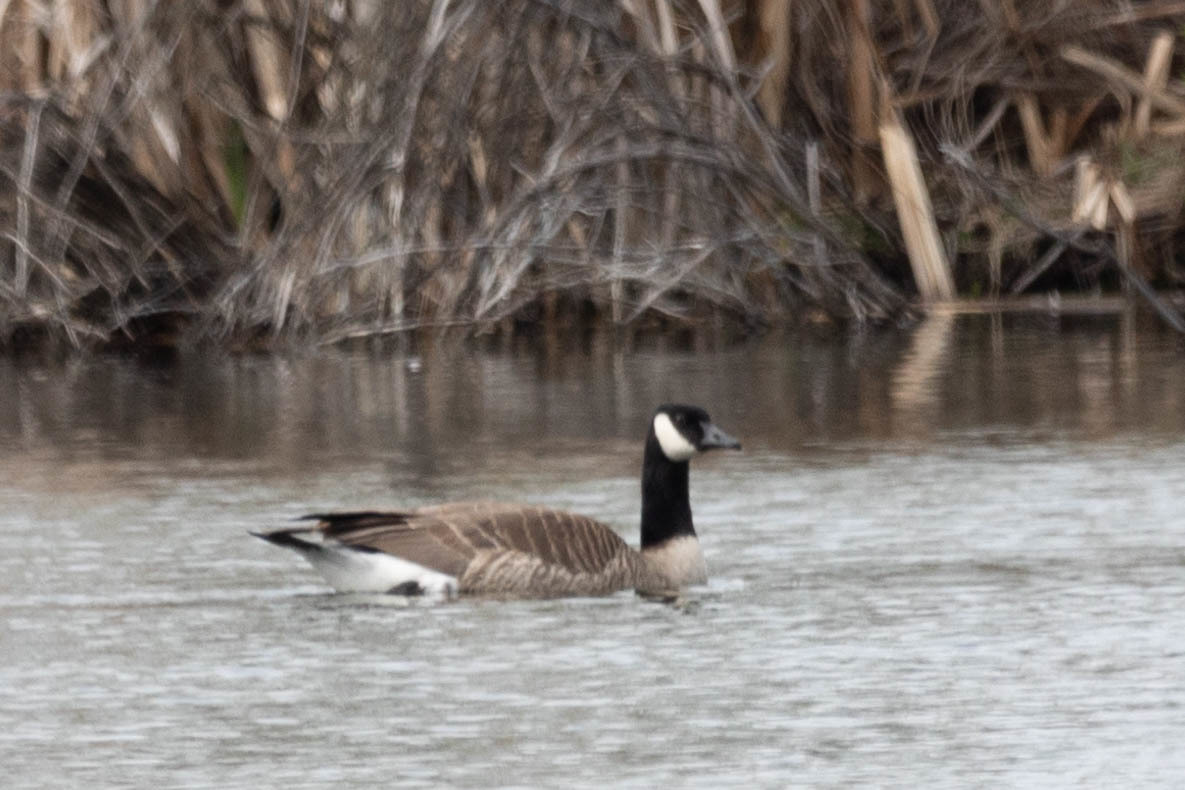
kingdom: Animalia
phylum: Chordata
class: Aves
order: Anseriformes
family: Anatidae
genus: Branta
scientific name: Branta canadensis
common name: Canada goose
